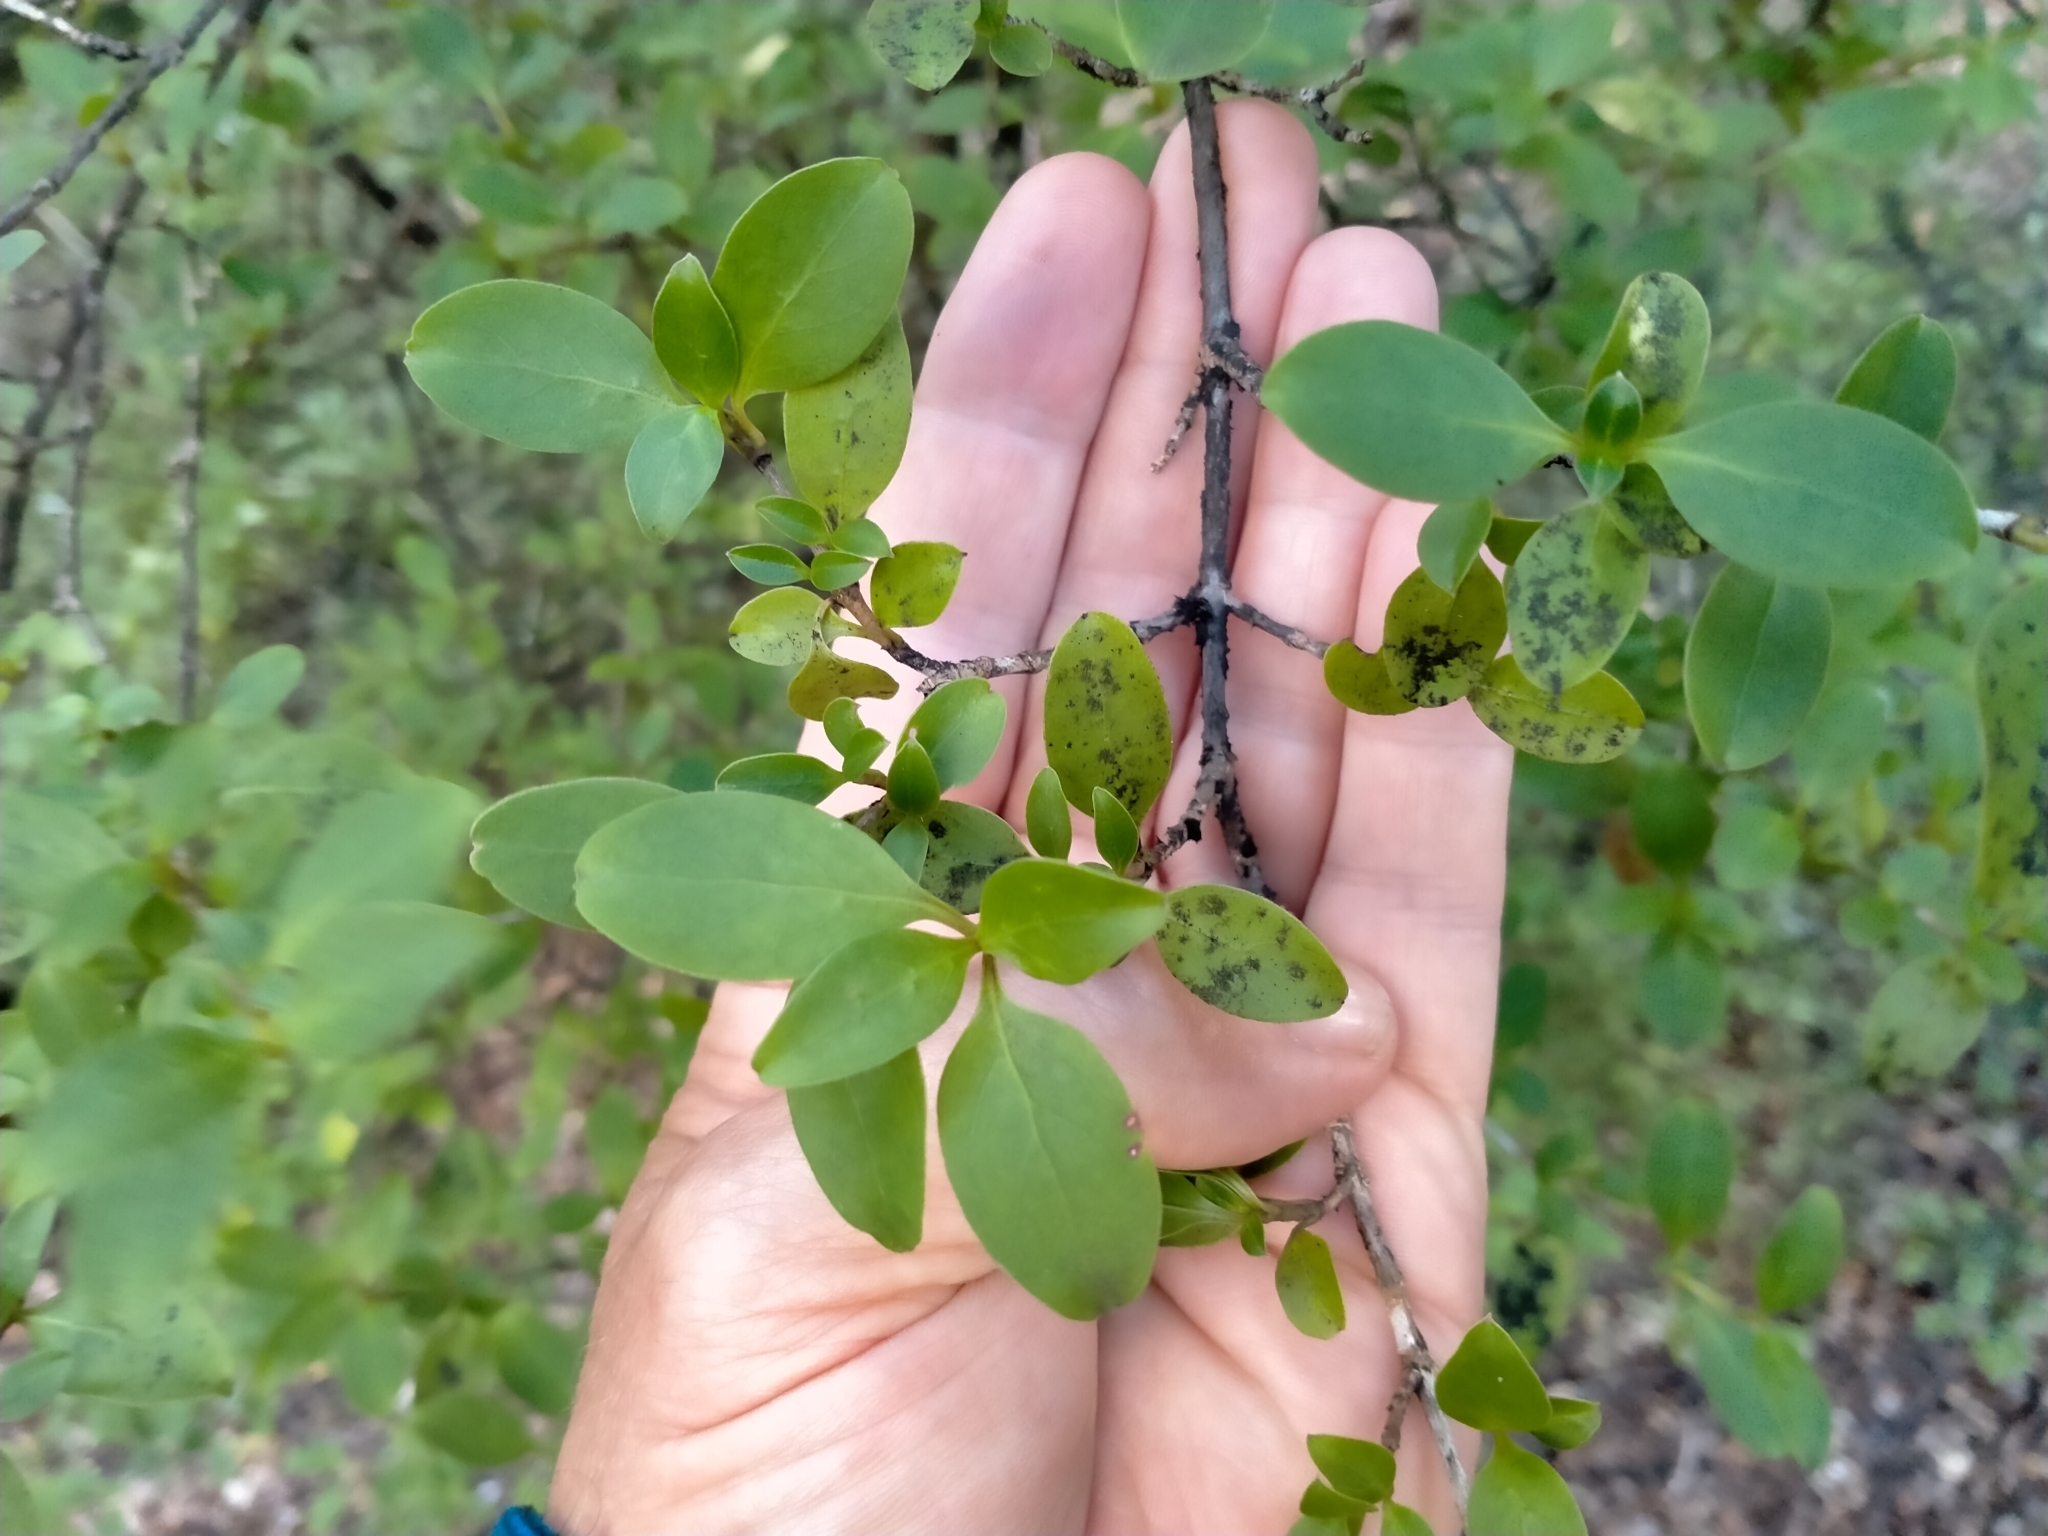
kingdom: Plantae
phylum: Tracheophyta
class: Magnoliopsida
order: Gentianales
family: Rubiaceae
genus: Coprosma
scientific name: Coprosma foetidissima
